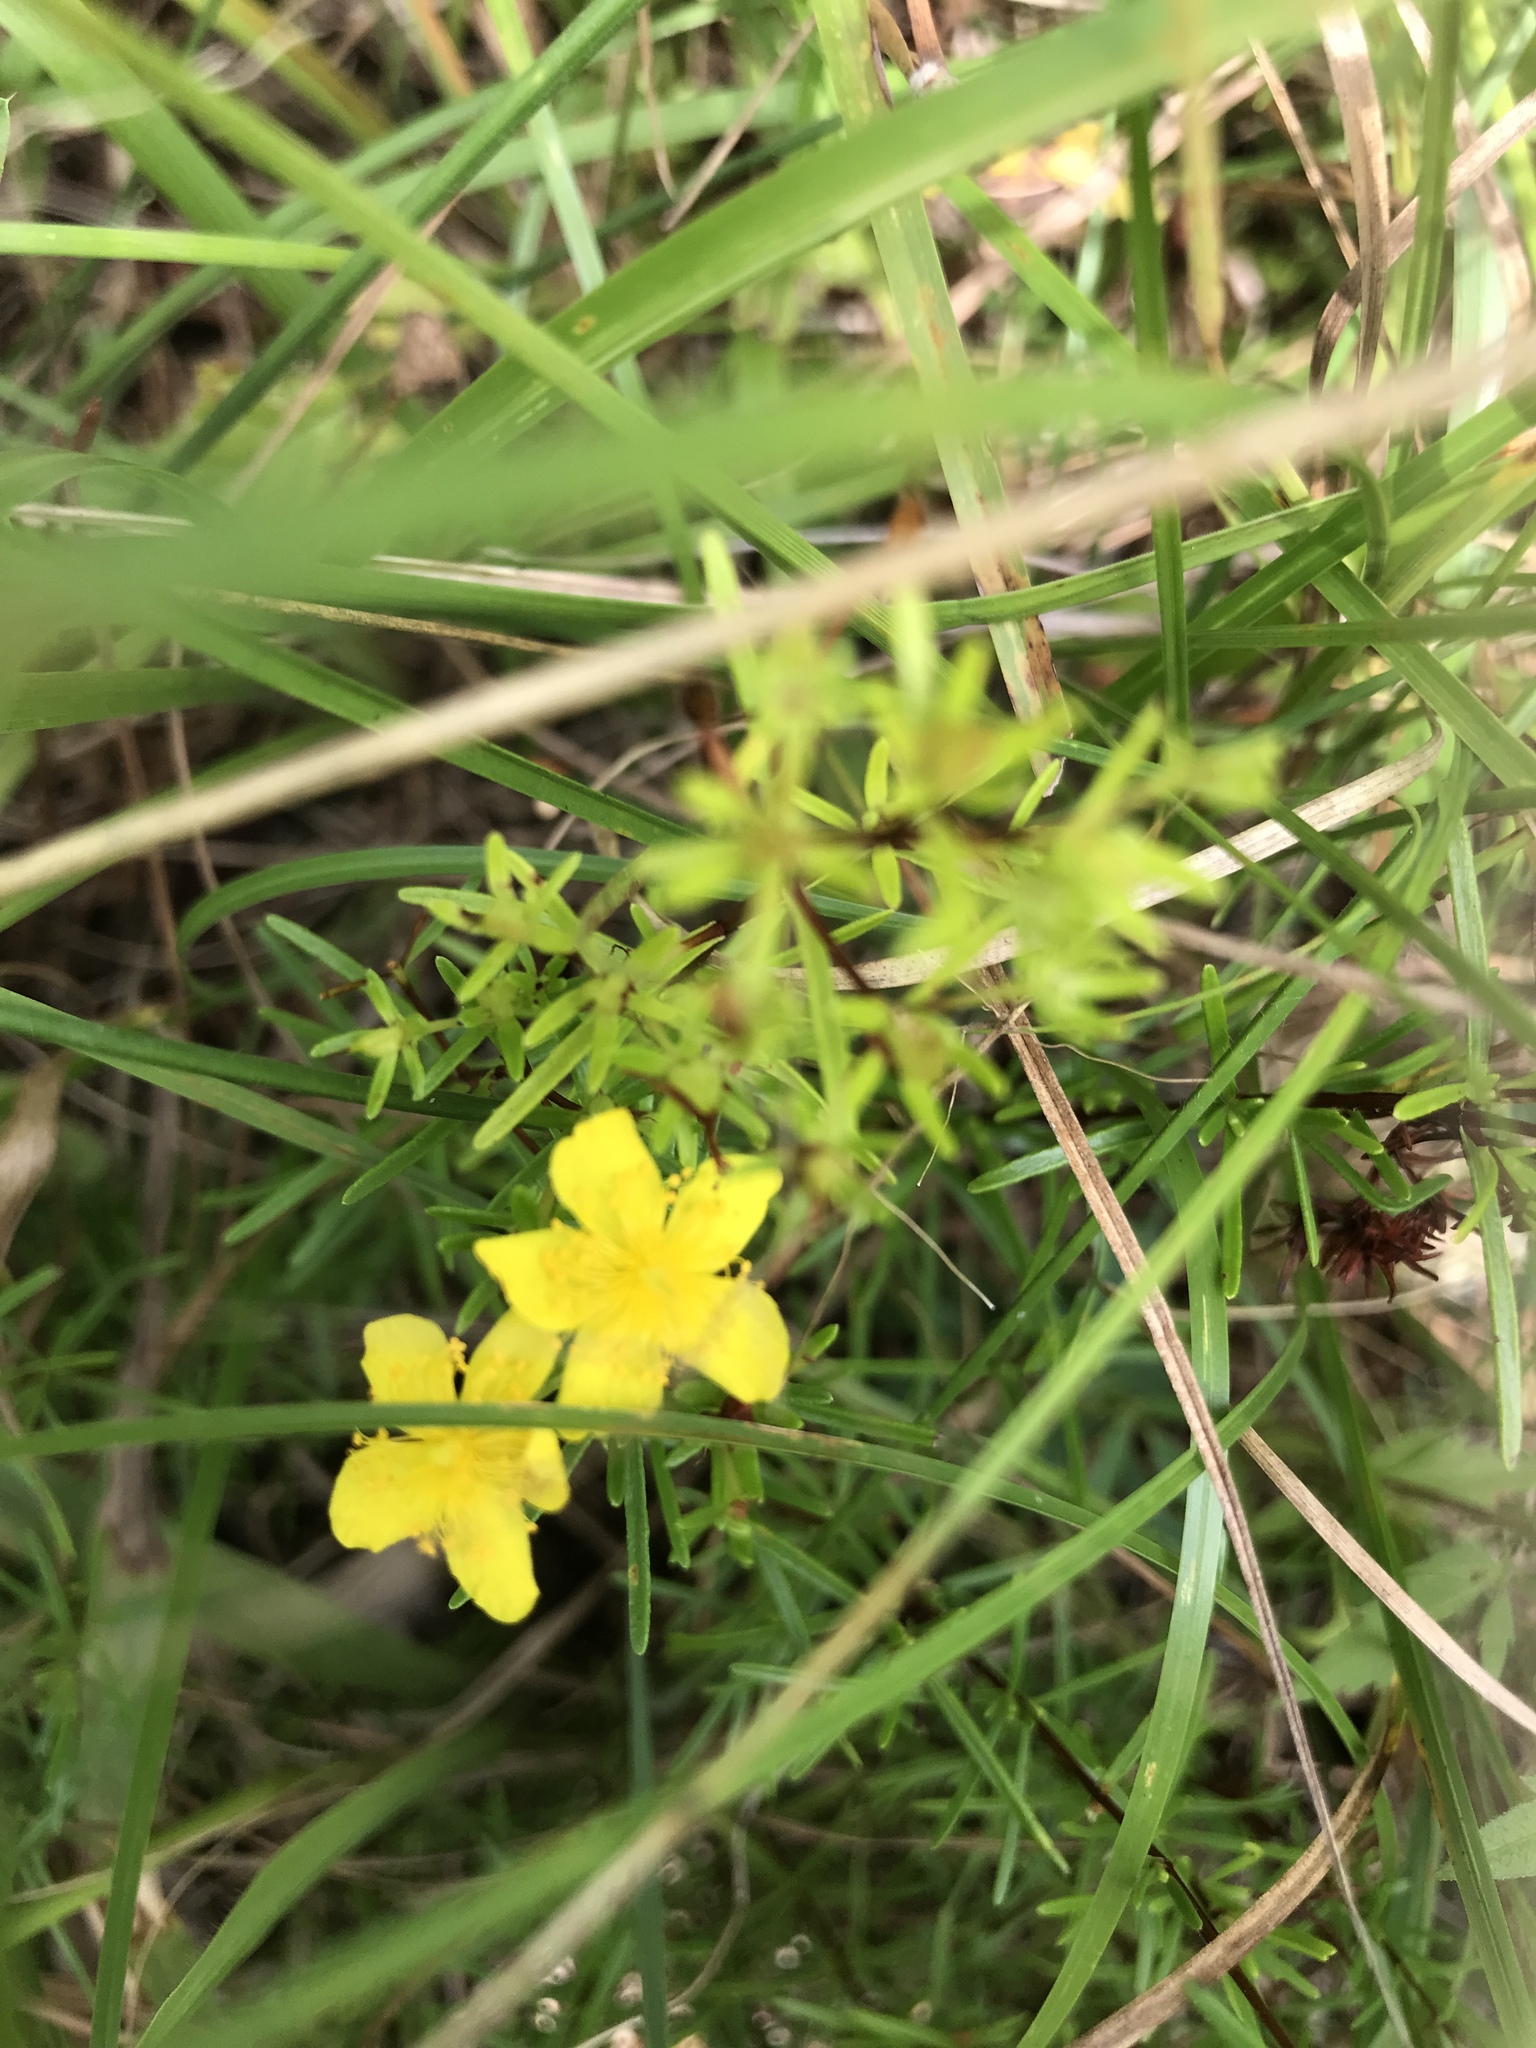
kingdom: Plantae
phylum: Tracheophyta
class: Magnoliopsida
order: Malpighiales
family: Hypericaceae
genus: Hypericum
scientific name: Hypericum lloydii
